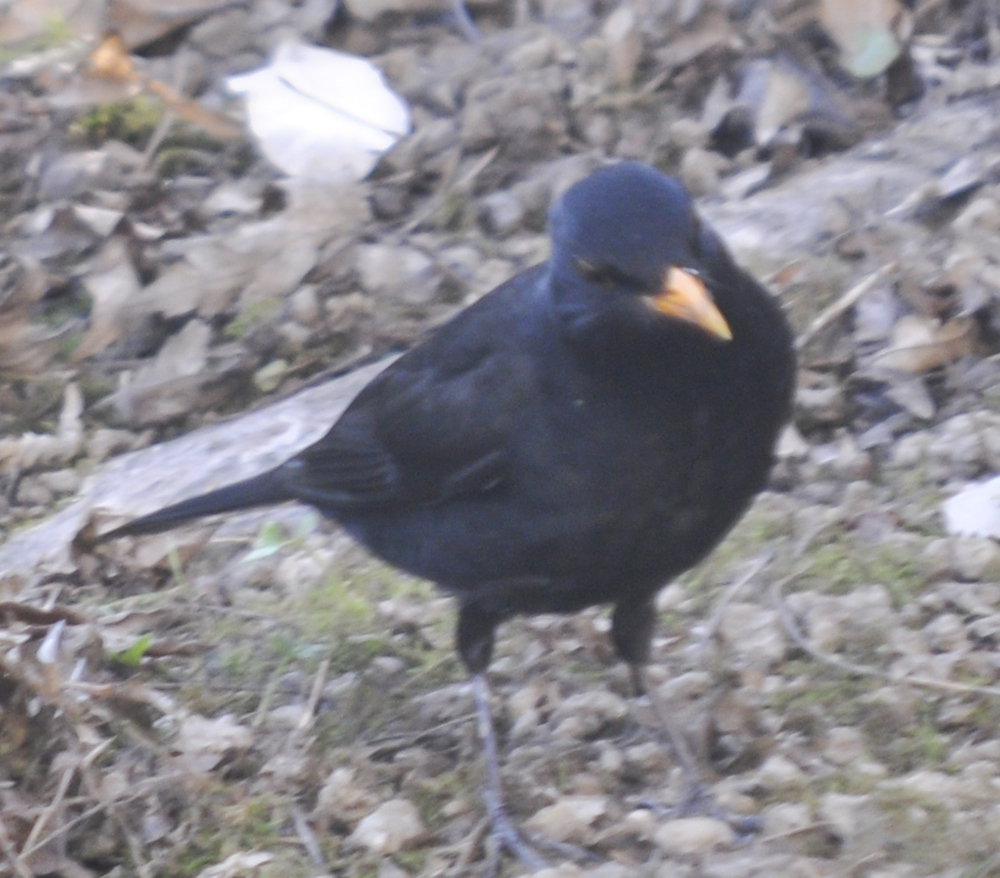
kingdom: Animalia
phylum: Chordata
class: Aves
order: Passeriformes
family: Turdidae
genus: Turdus
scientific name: Turdus merula
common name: Common blackbird
